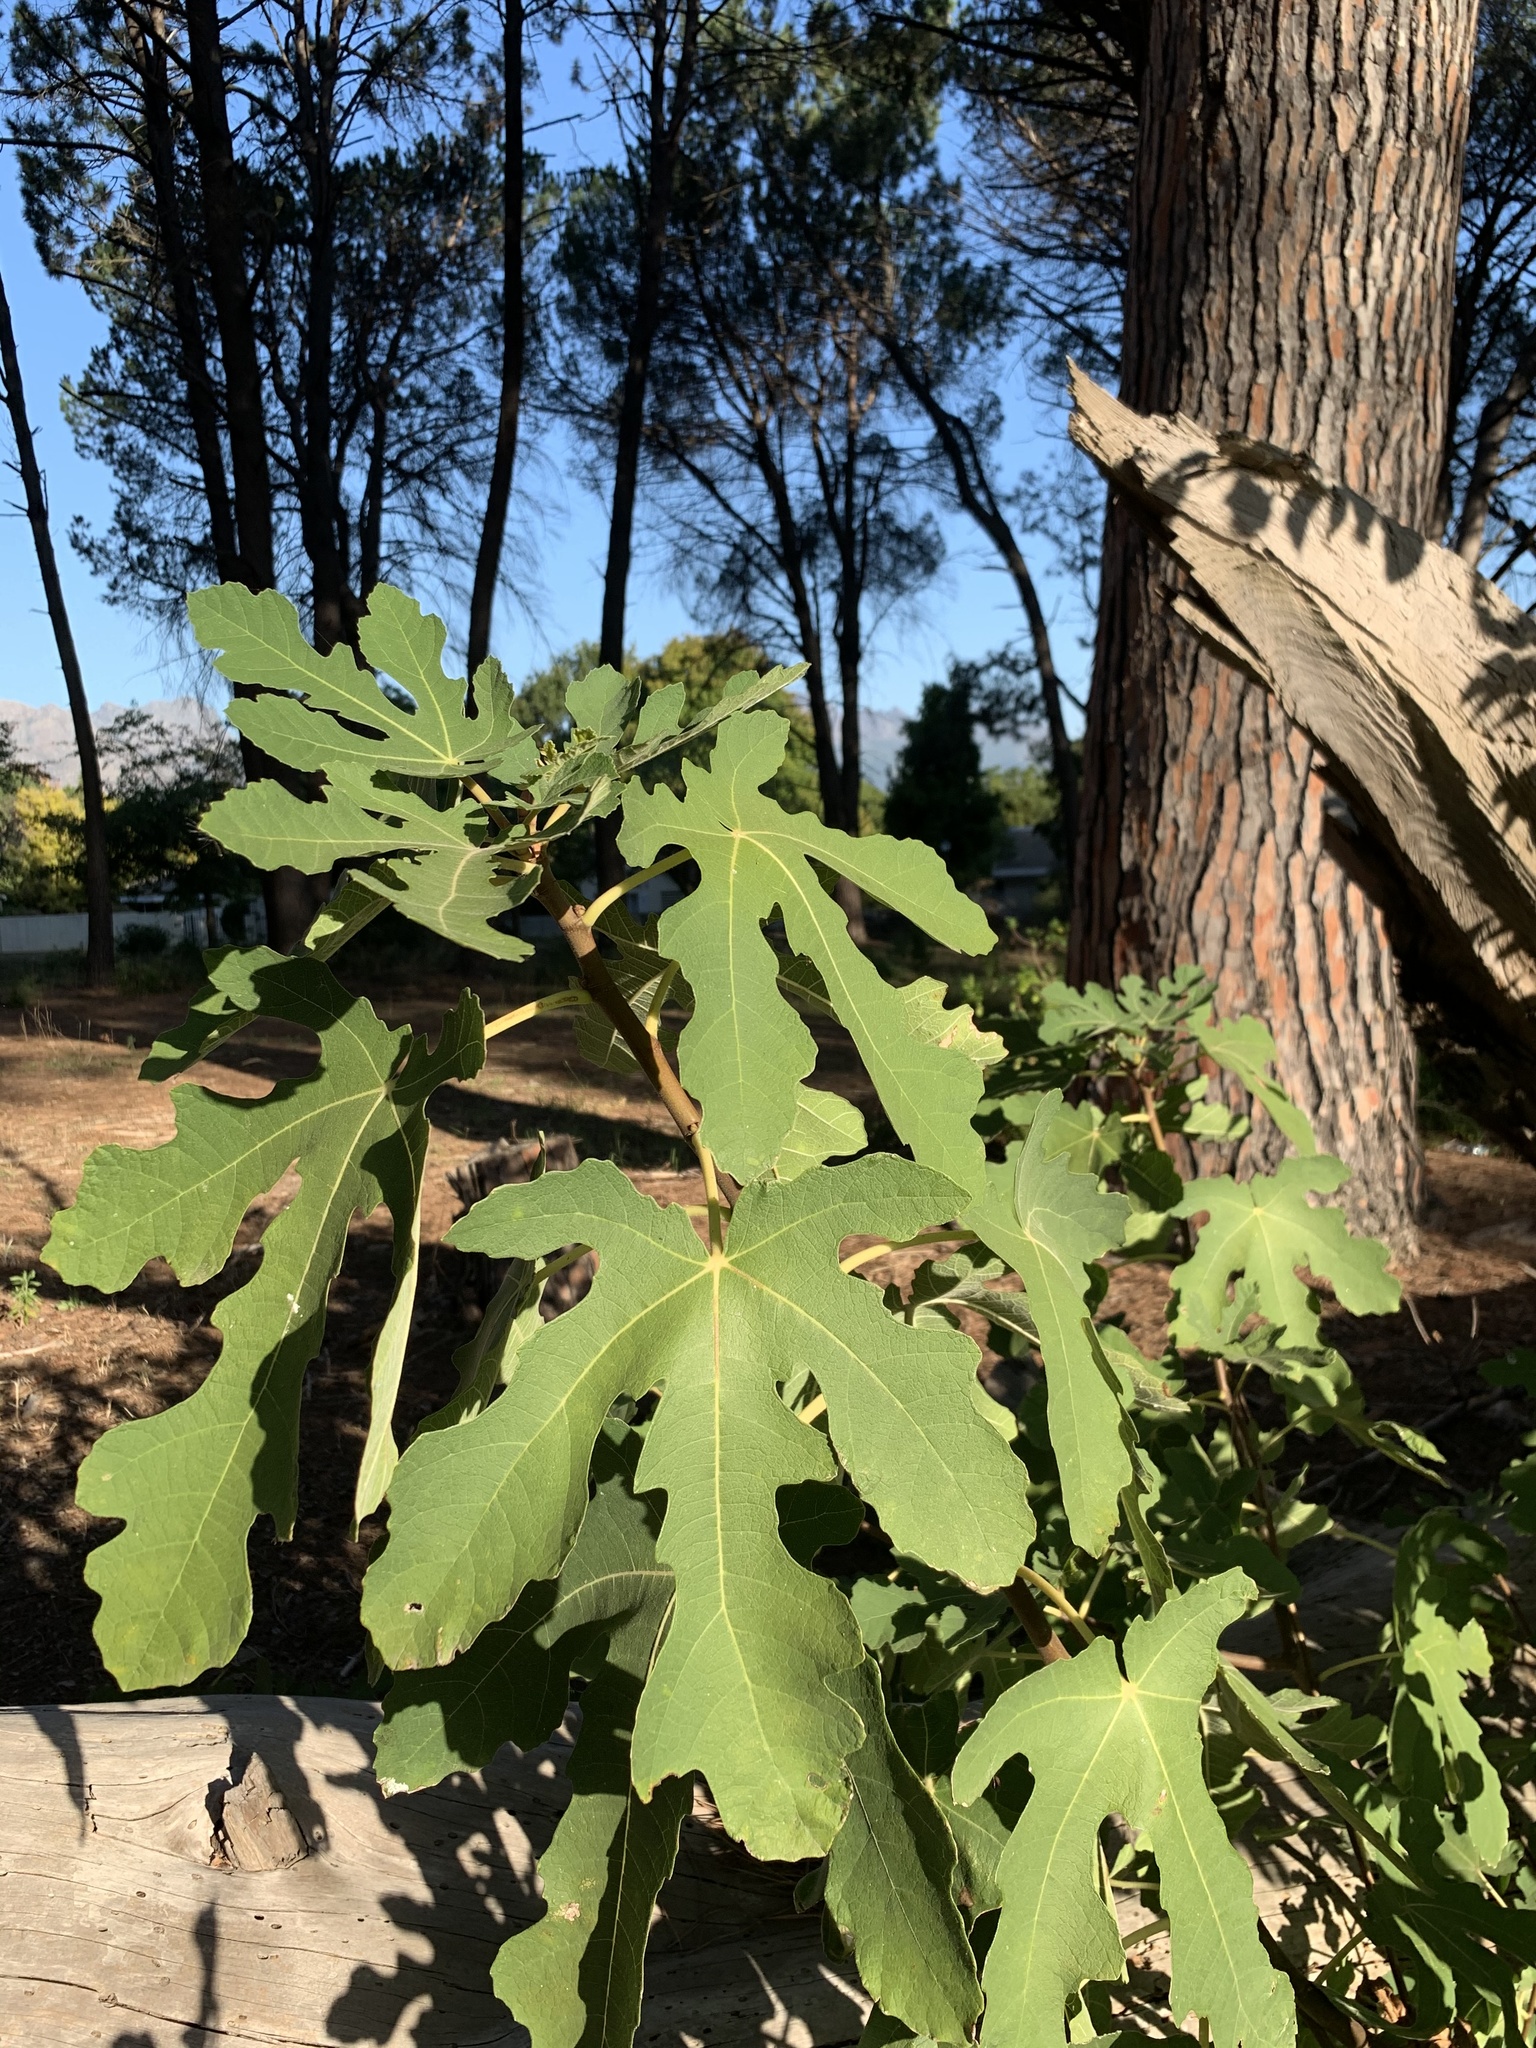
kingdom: Plantae
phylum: Tracheophyta
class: Magnoliopsida
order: Rosales
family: Moraceae
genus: Ficus
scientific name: Ficus carica
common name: Fig
